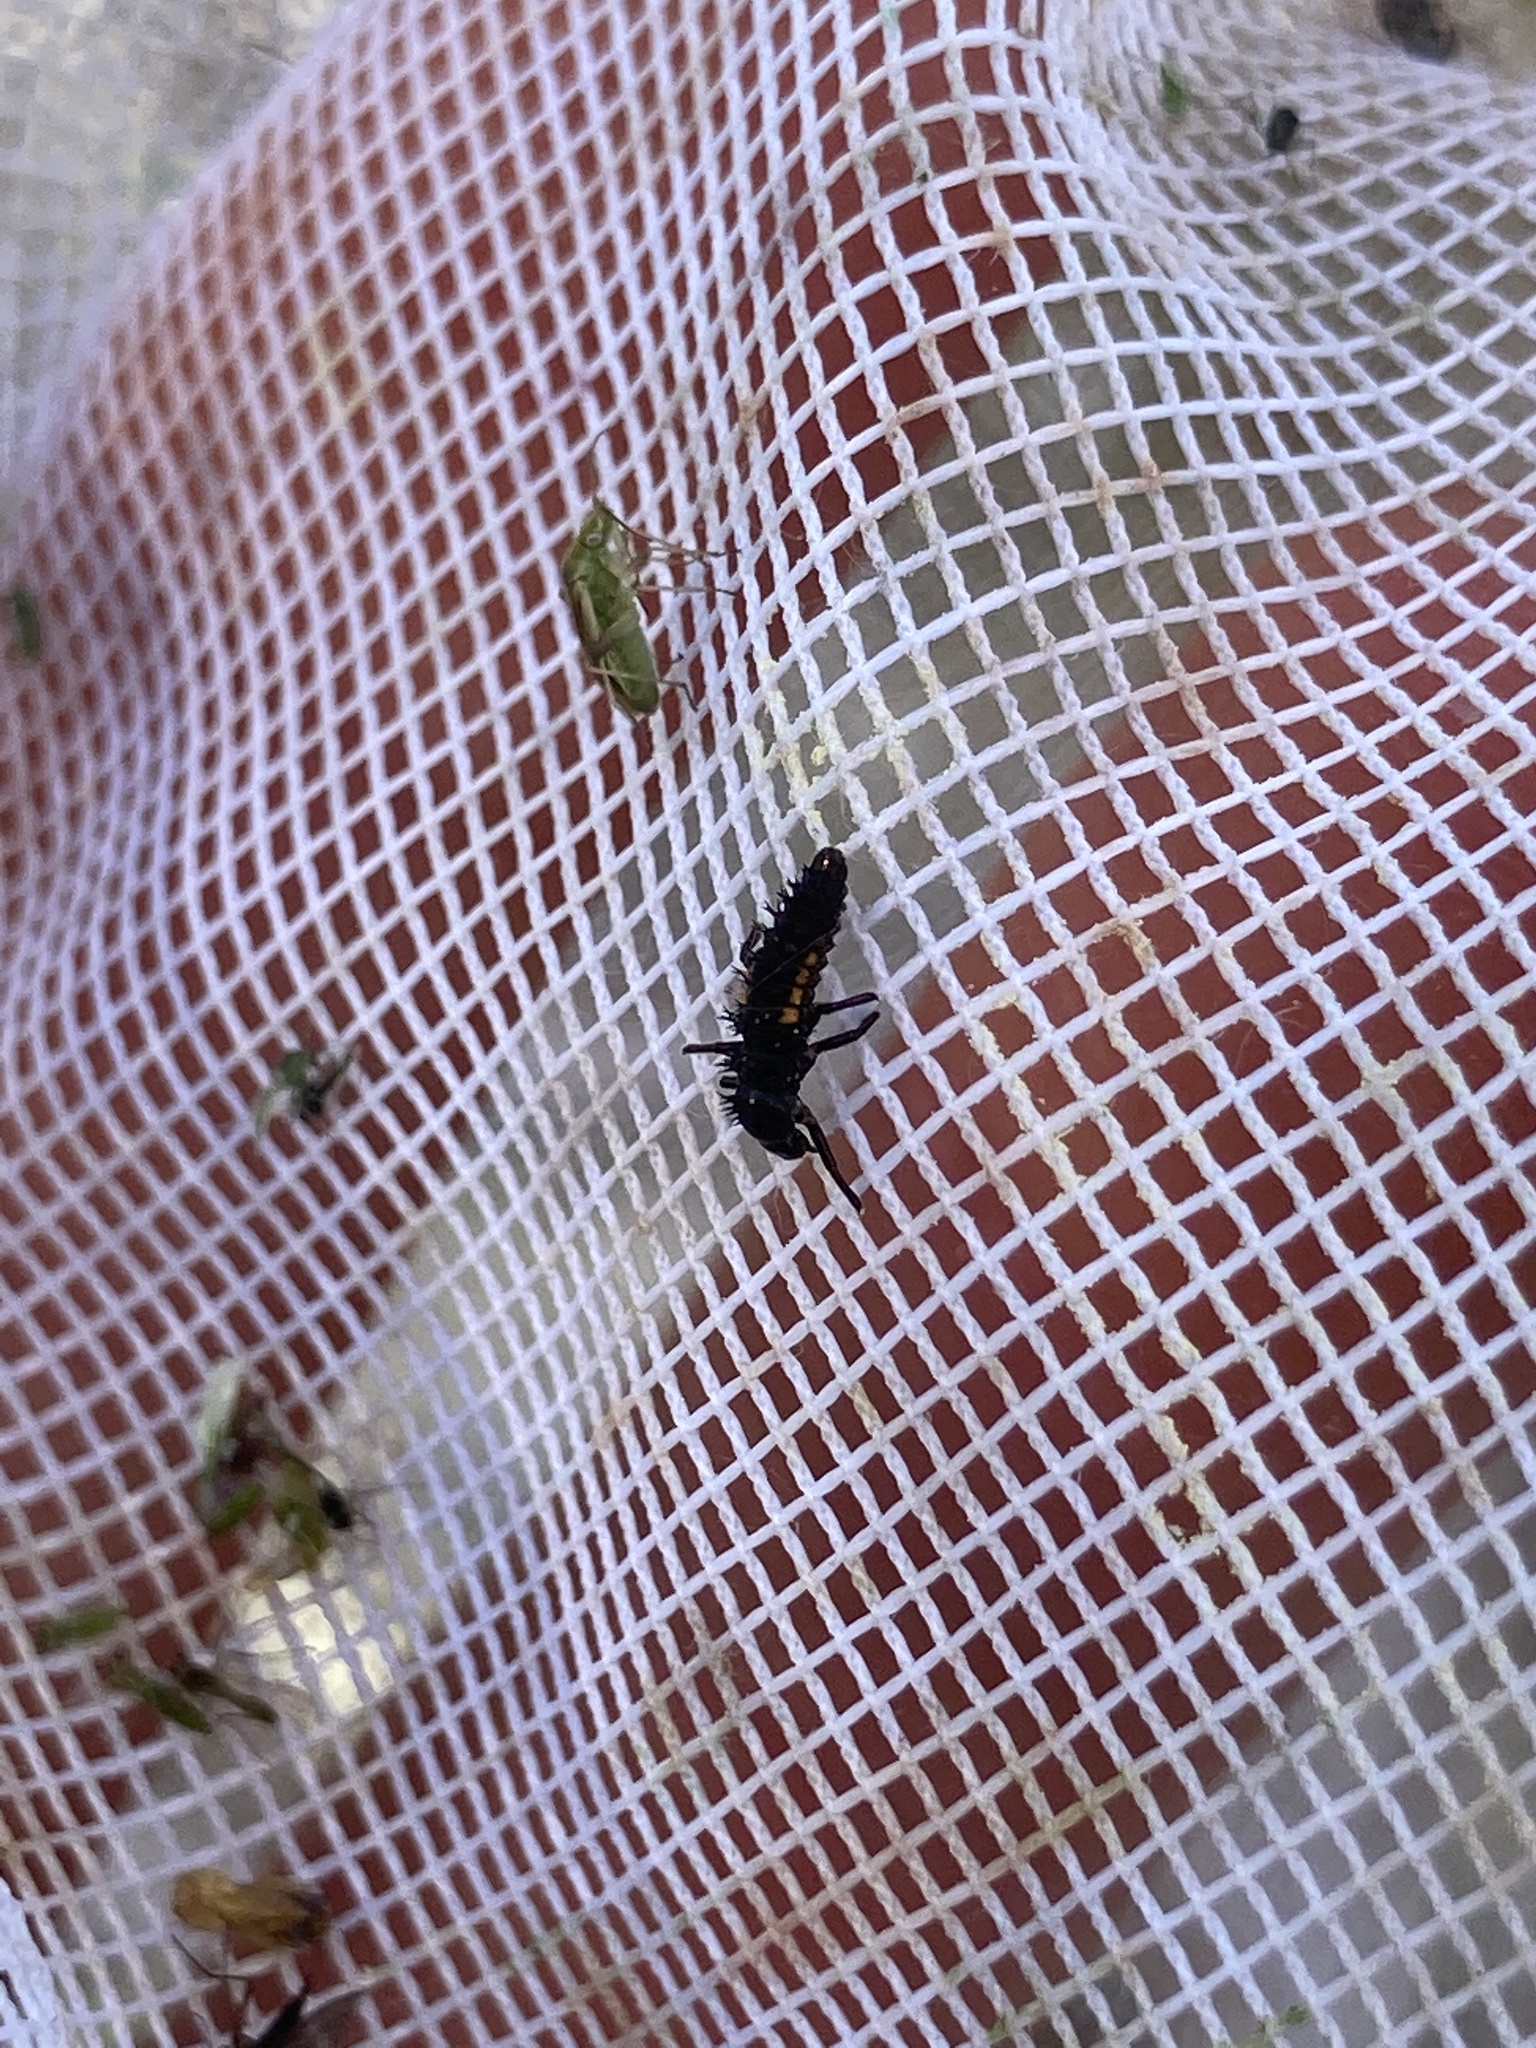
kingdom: Animalia
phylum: Arthropoda
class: Insecta
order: Coleoptera
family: Coccinellidae
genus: Harmonia
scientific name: Harmonia axyridis
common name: Harlequin ladybird
